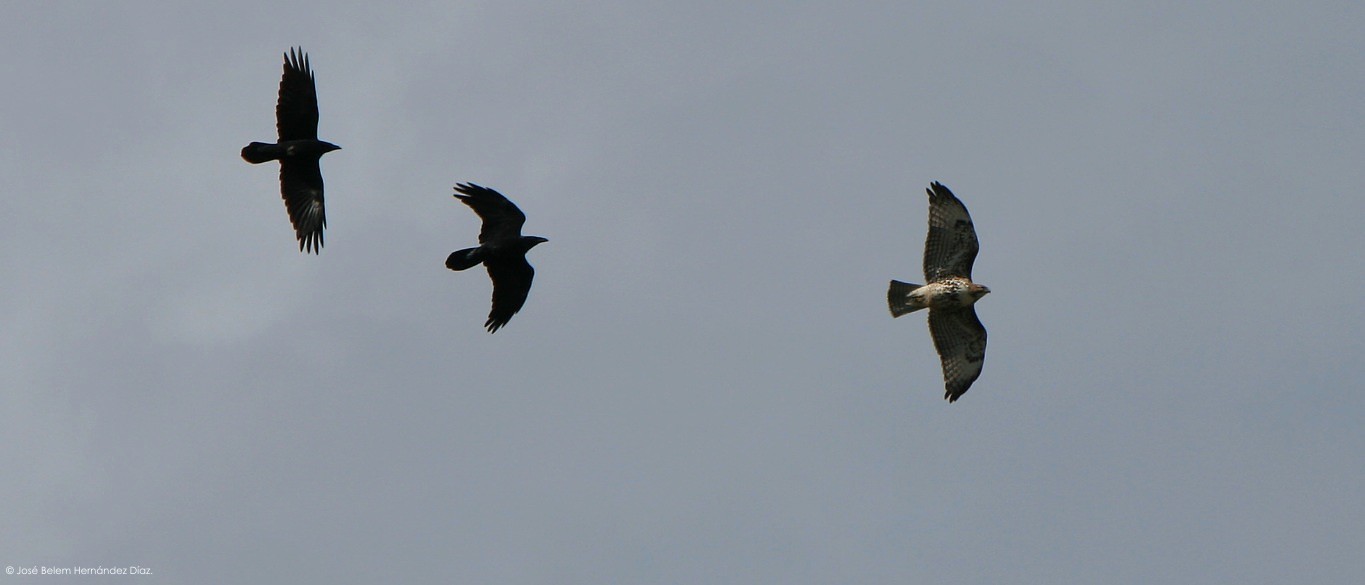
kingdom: Animalia
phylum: Chordata
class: Aves
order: Accipitriformes
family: Accipitridae
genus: Buteo
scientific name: Buteo jamaicensis
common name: Red-tailed hawk
